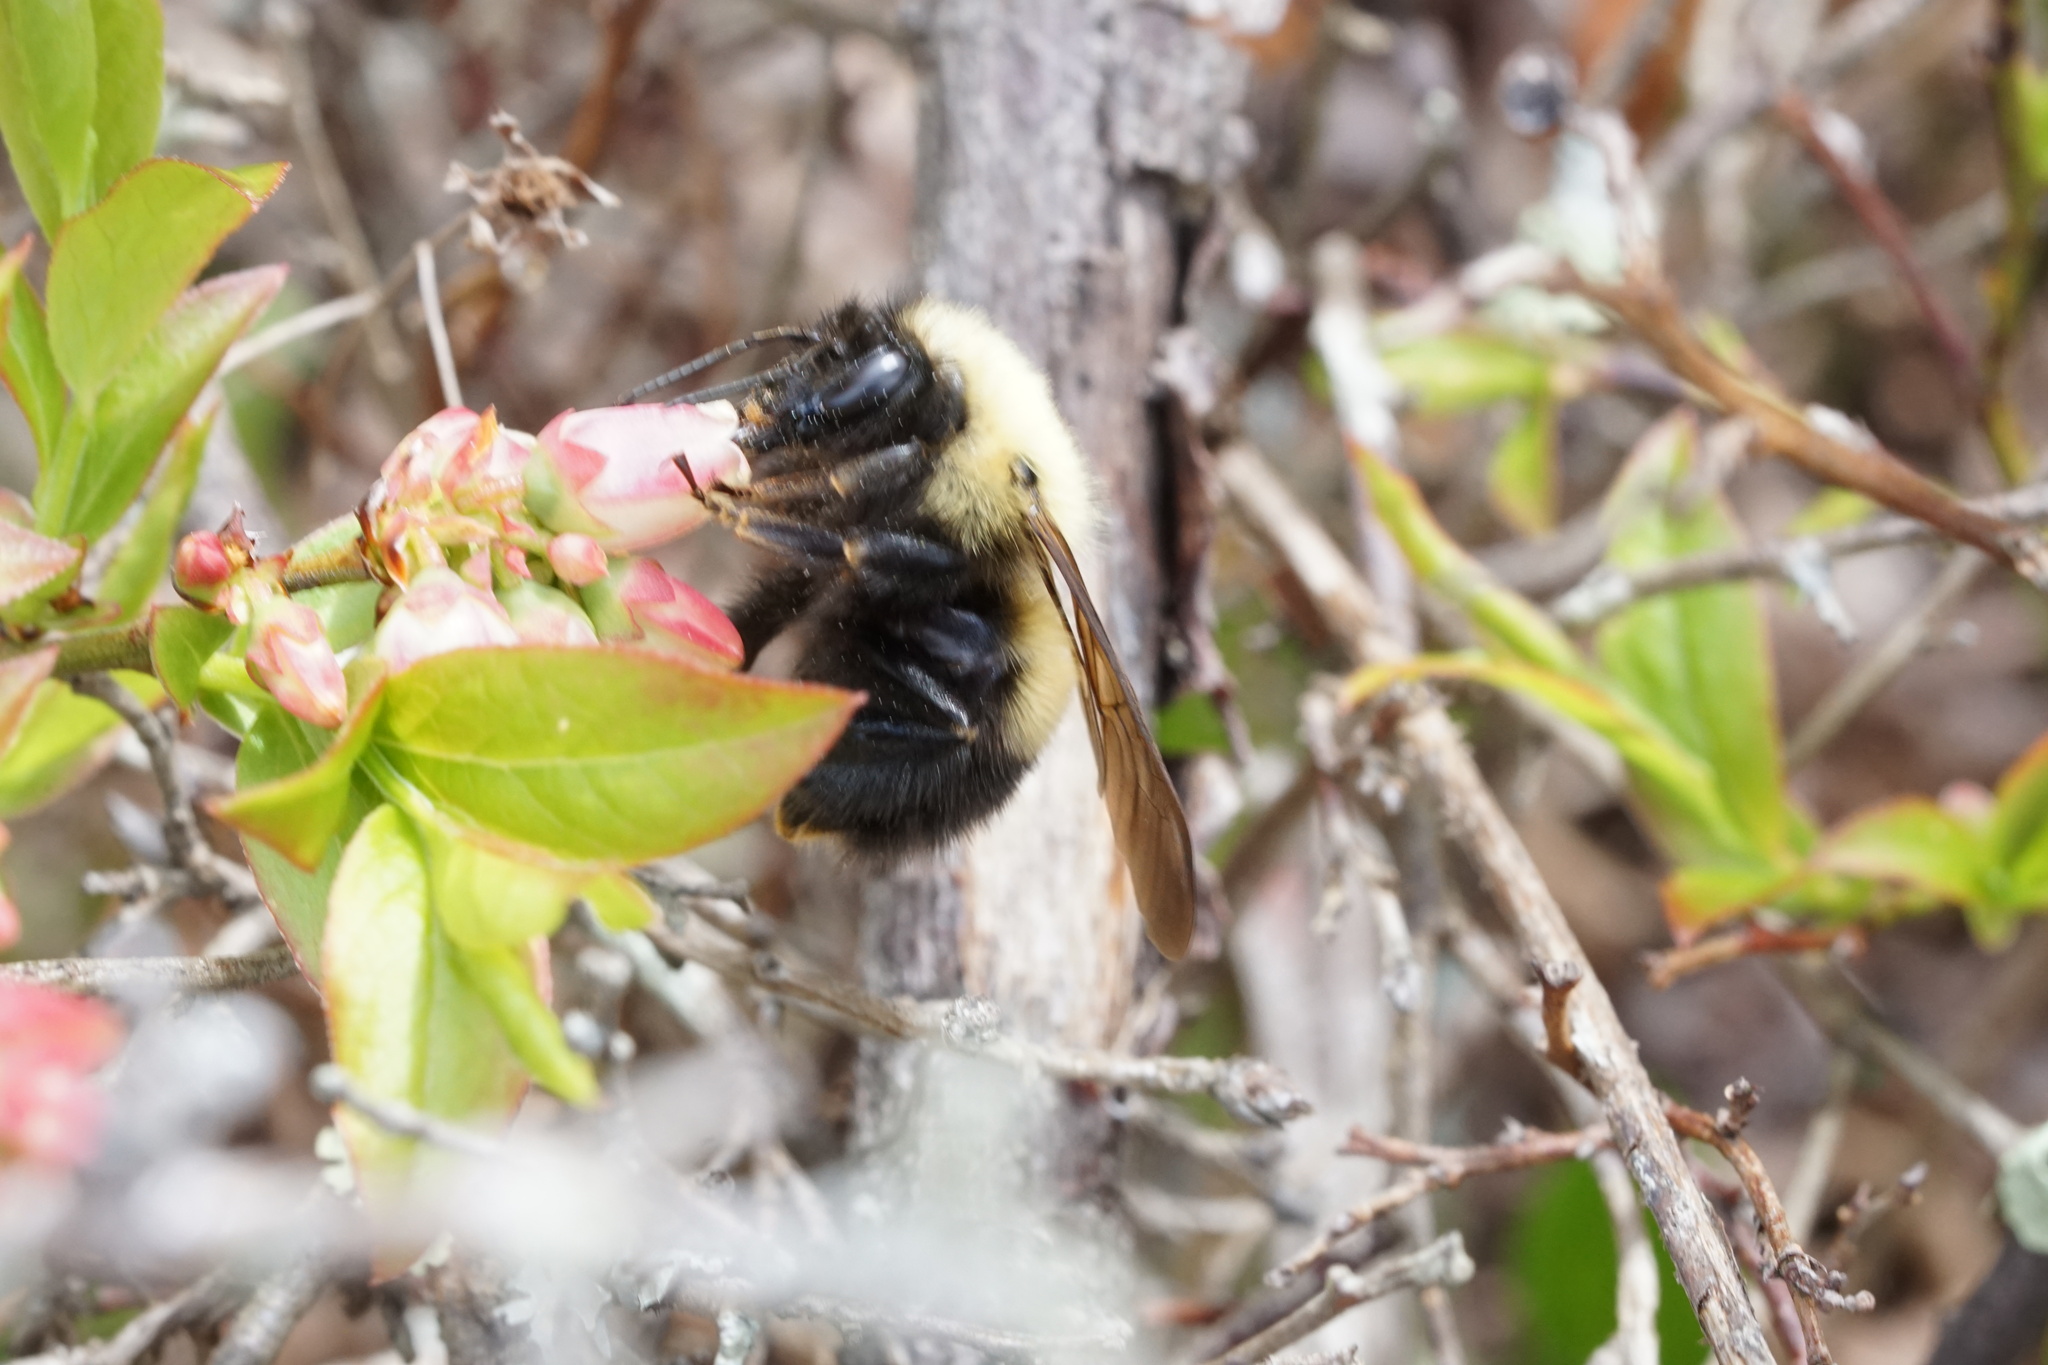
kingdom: Animalia
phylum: Arthropoda
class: Insecta
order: Hymenoptera
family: Apidae
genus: Bombus
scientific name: Bombus perplexus
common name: Confusing bumble bee
